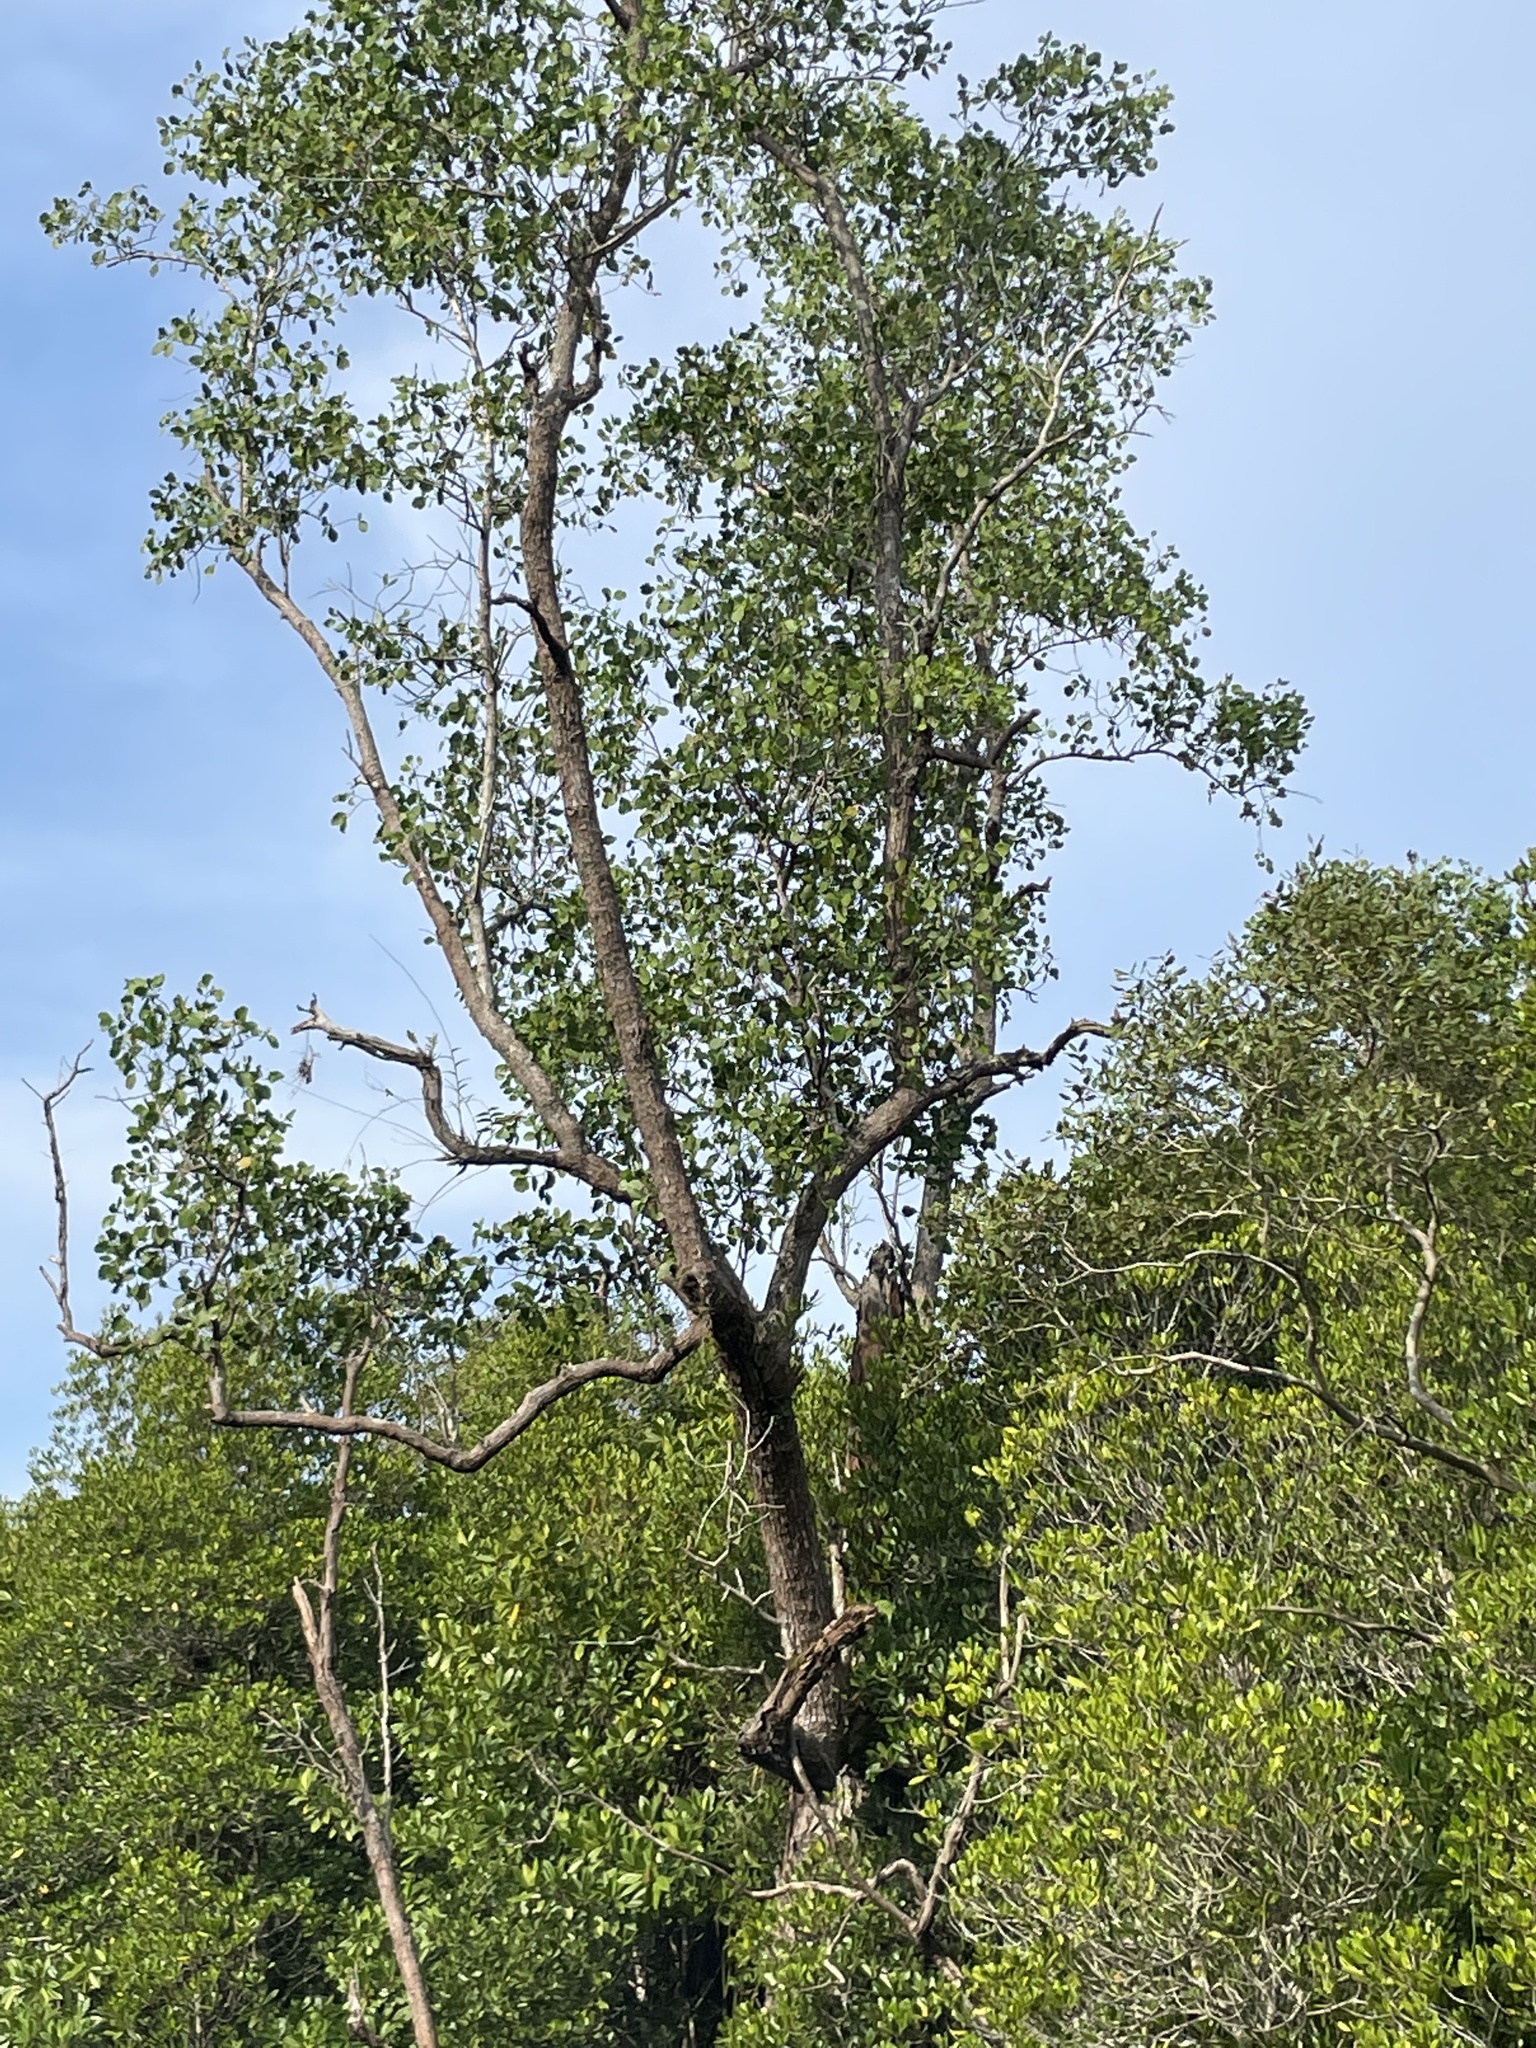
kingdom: Plantae
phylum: Tracheophyta
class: Magnoliopsida
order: Myrtales
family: Lythraceae
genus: Sonneratia
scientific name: Sonneratia alba
